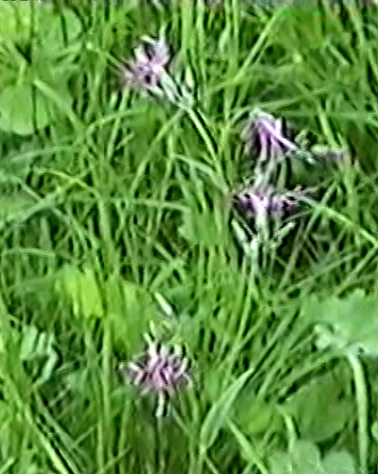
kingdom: Plantae
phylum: Tracheophyta
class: Magnoliopsida
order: Caryophyllales
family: Caryophyllaceae
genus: Silene
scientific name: Silene flos-cuculi
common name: Ragged-robin
